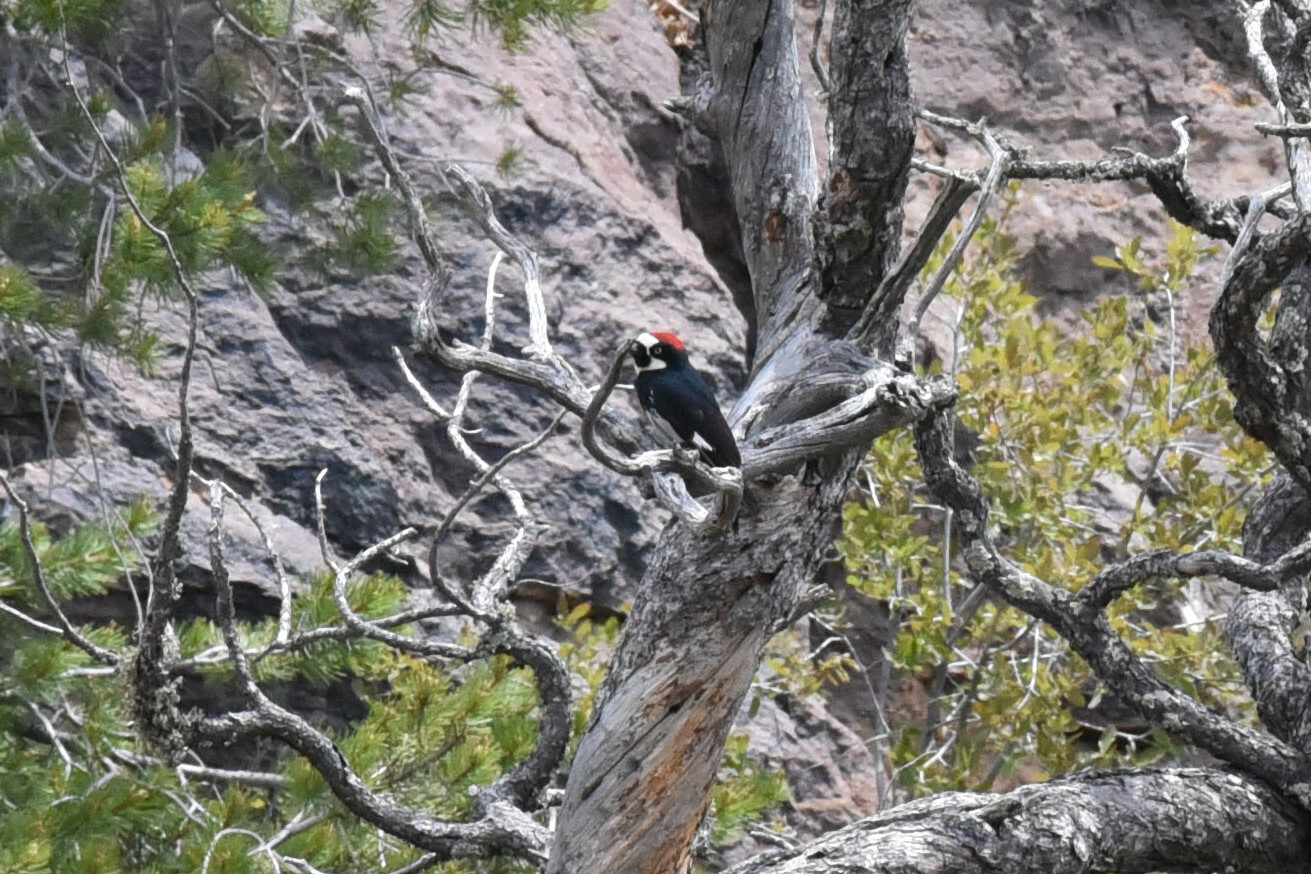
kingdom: Animalia
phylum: Chordata
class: Aves
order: Piciformes
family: Picidae
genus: Melanerpes
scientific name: Melanerpes formicivorus
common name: Acorn woodpecker
